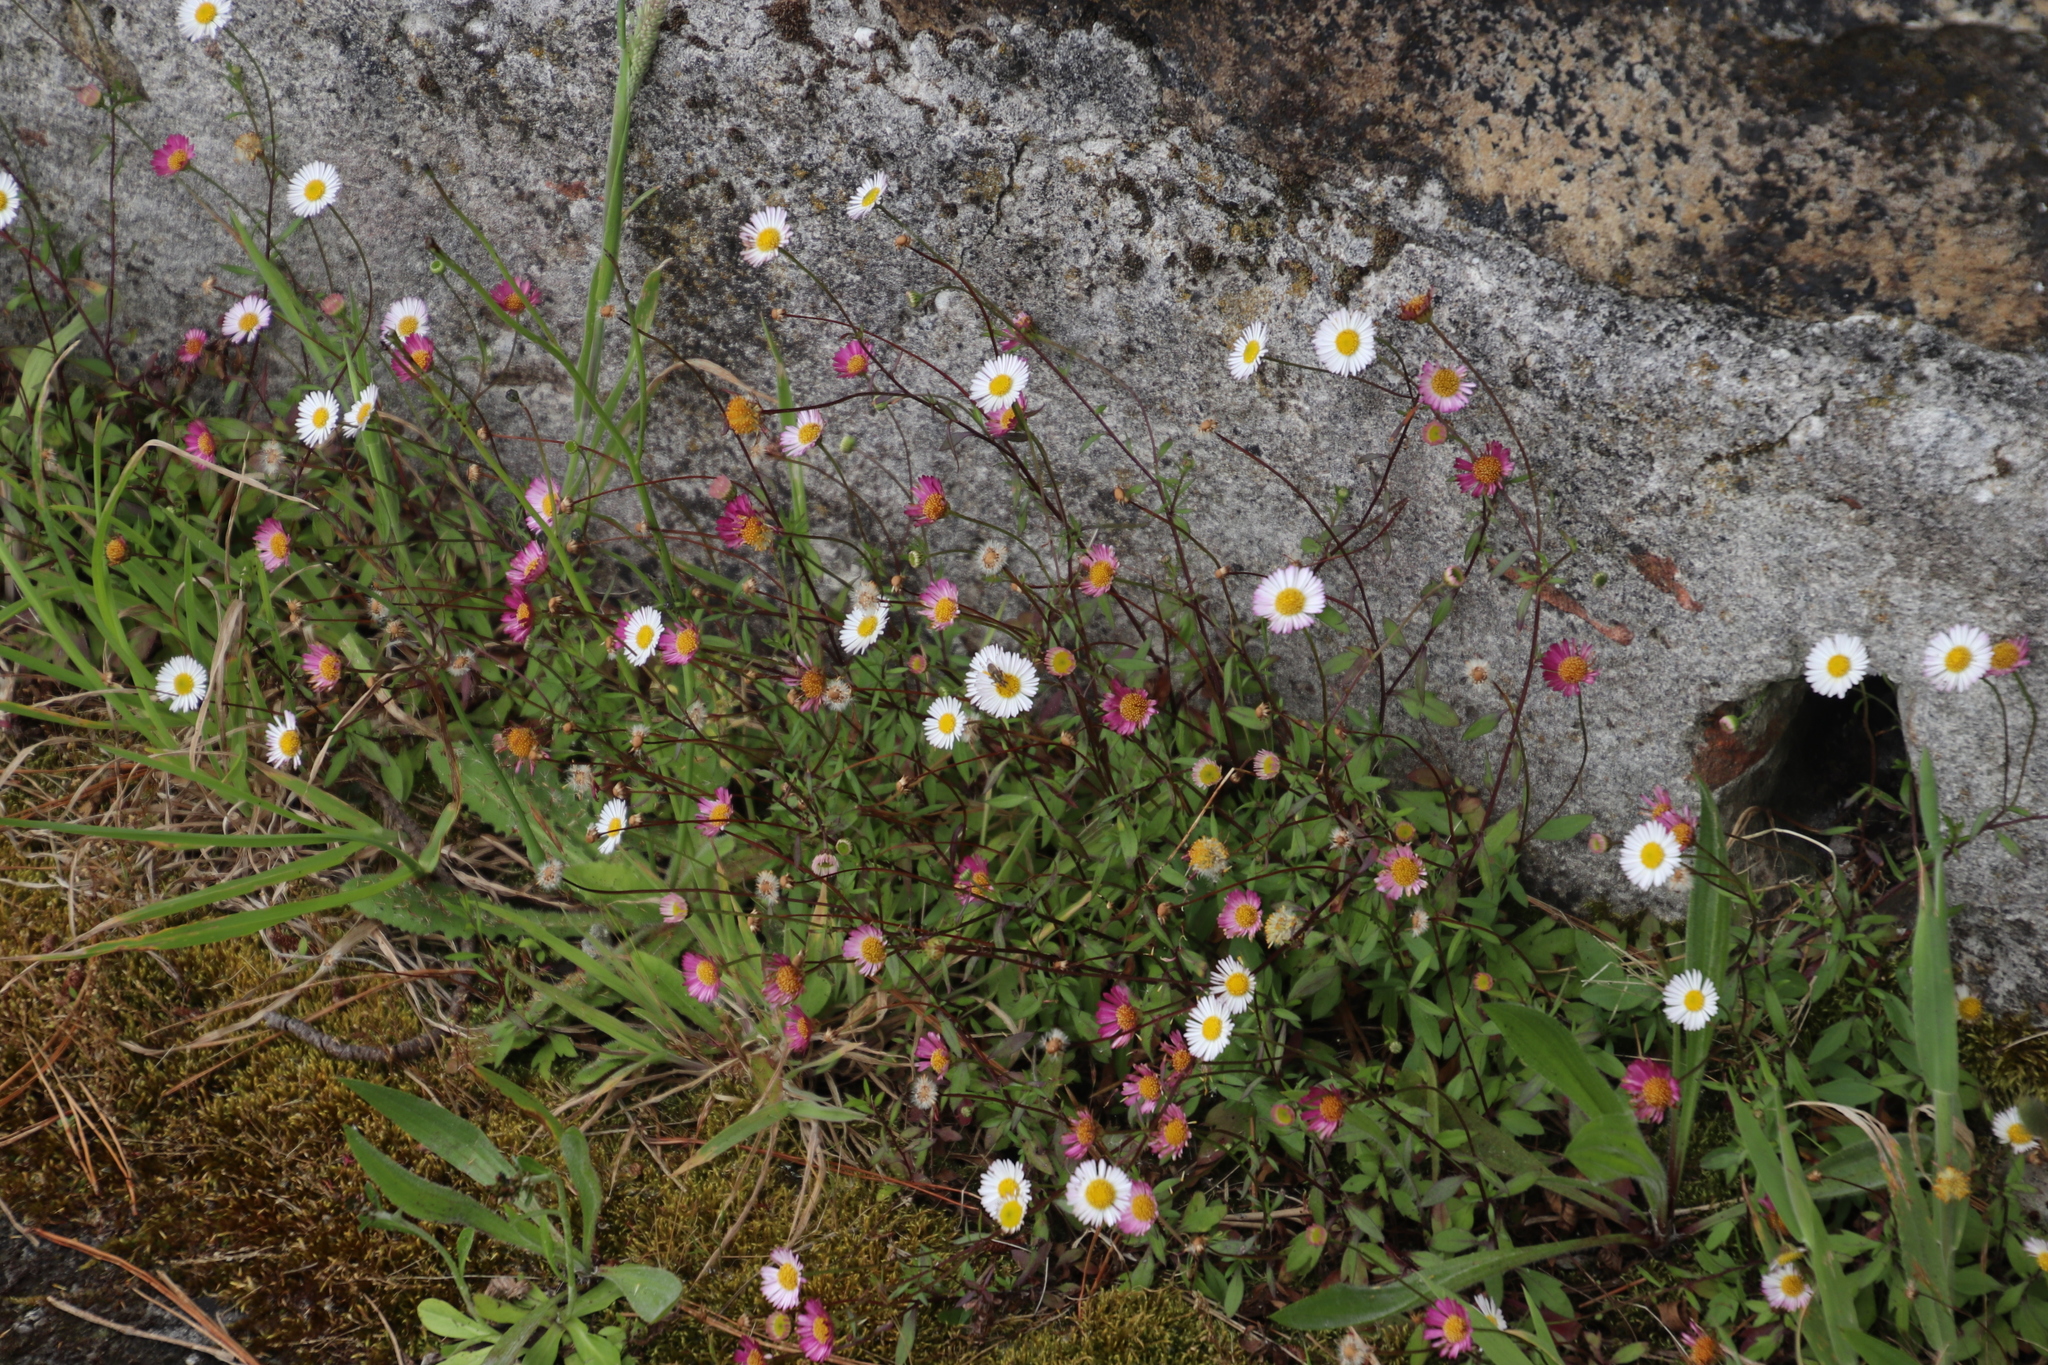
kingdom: Plantae
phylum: Tracheophyta
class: Magnoliopsida
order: Asterales
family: Asteraceae
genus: Erigeron
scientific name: Erigeron karvinskianus
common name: Mexican fleabane
